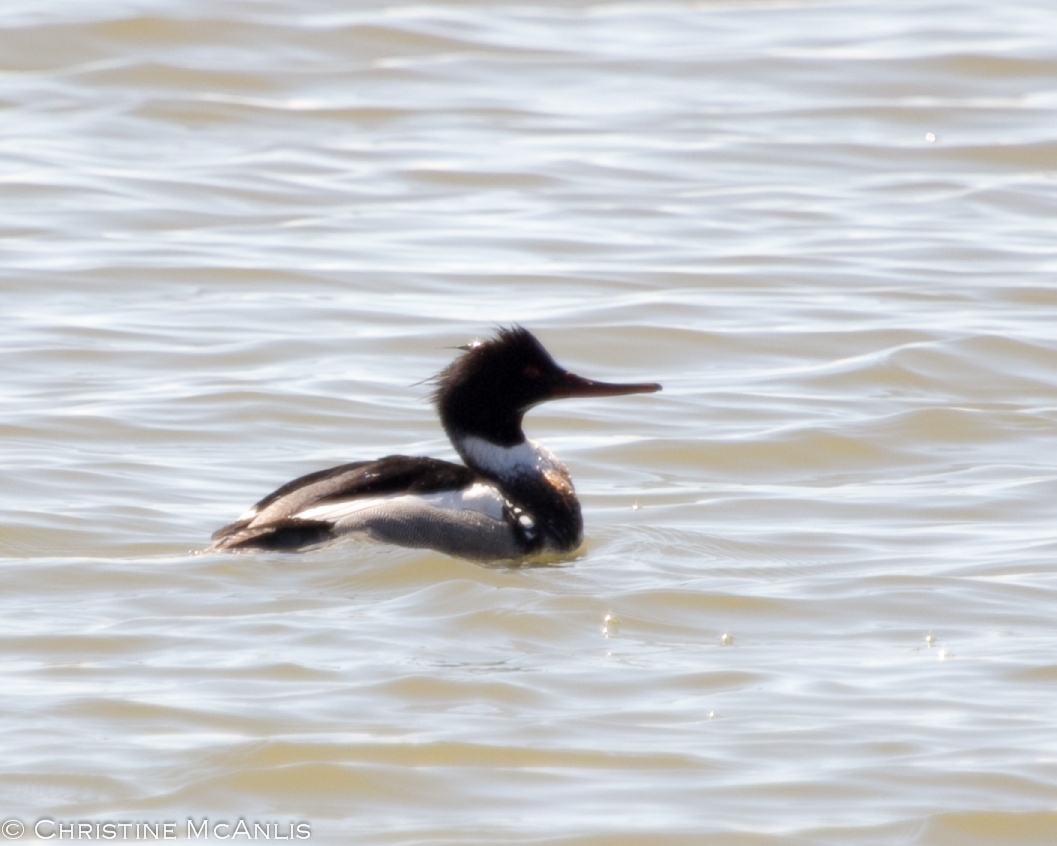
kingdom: Animalia
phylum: Chordata
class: Aves
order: Anseriformes
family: Anatidae
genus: Mergus
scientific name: Mergus serrator
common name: Red-breasted merganser
